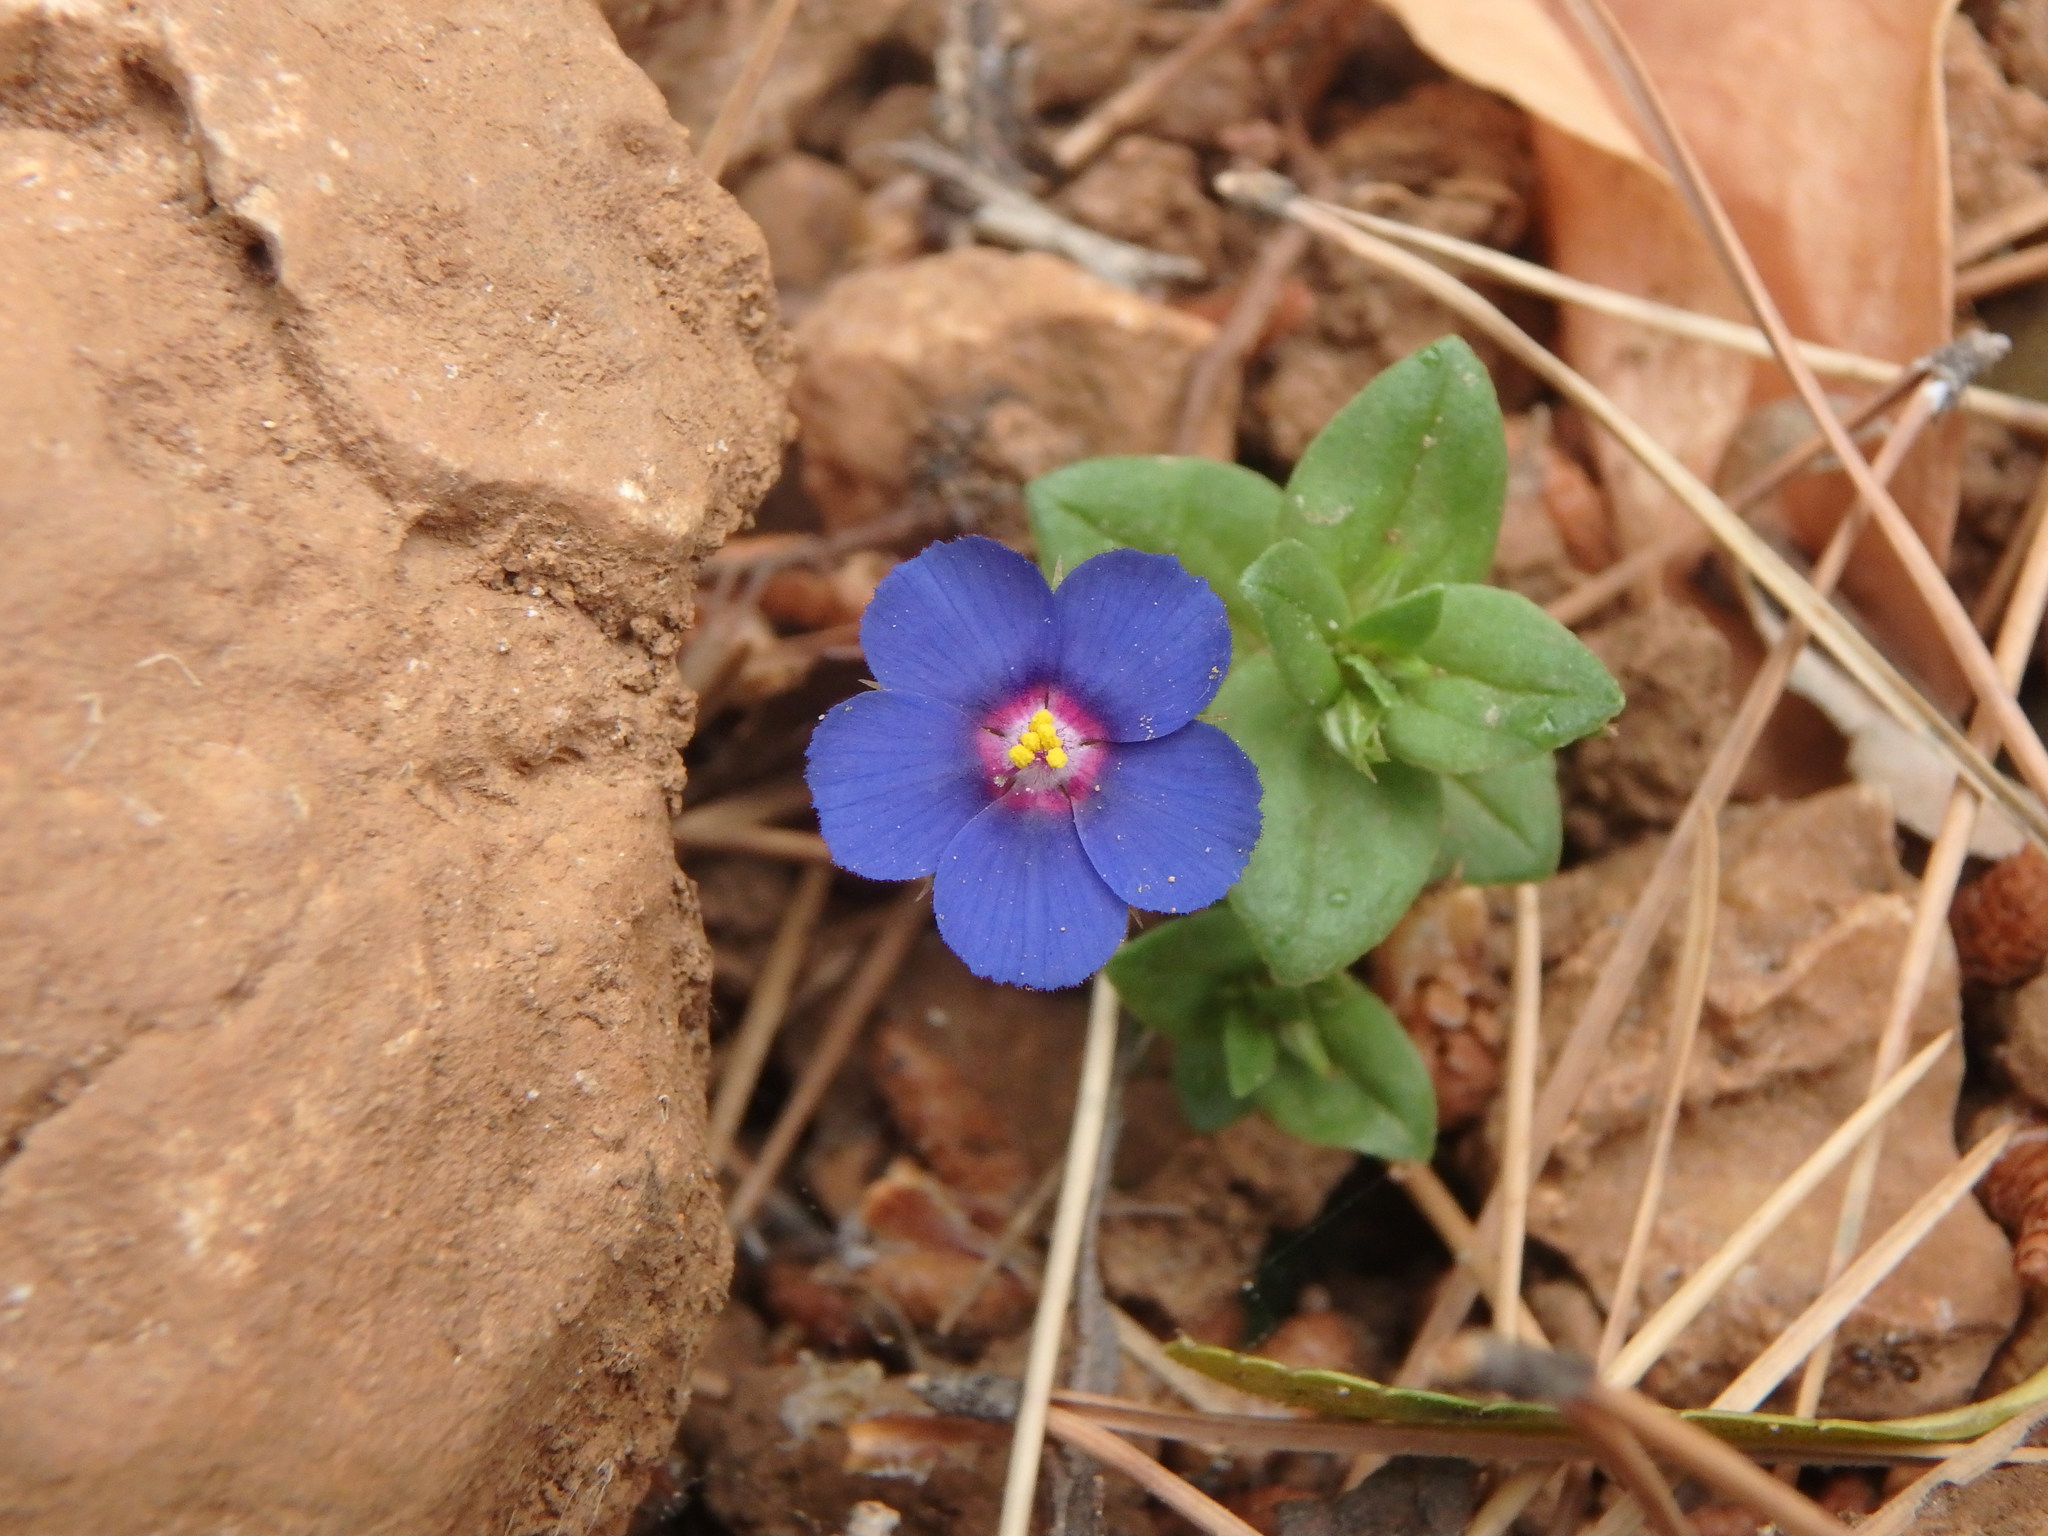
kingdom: Plantae
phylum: Tracheophyta
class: Magnoliopsida
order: Ericales
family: Primulaceae
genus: Lysimachia
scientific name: Lysimachia arvensis
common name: Scarlet pimpernel
